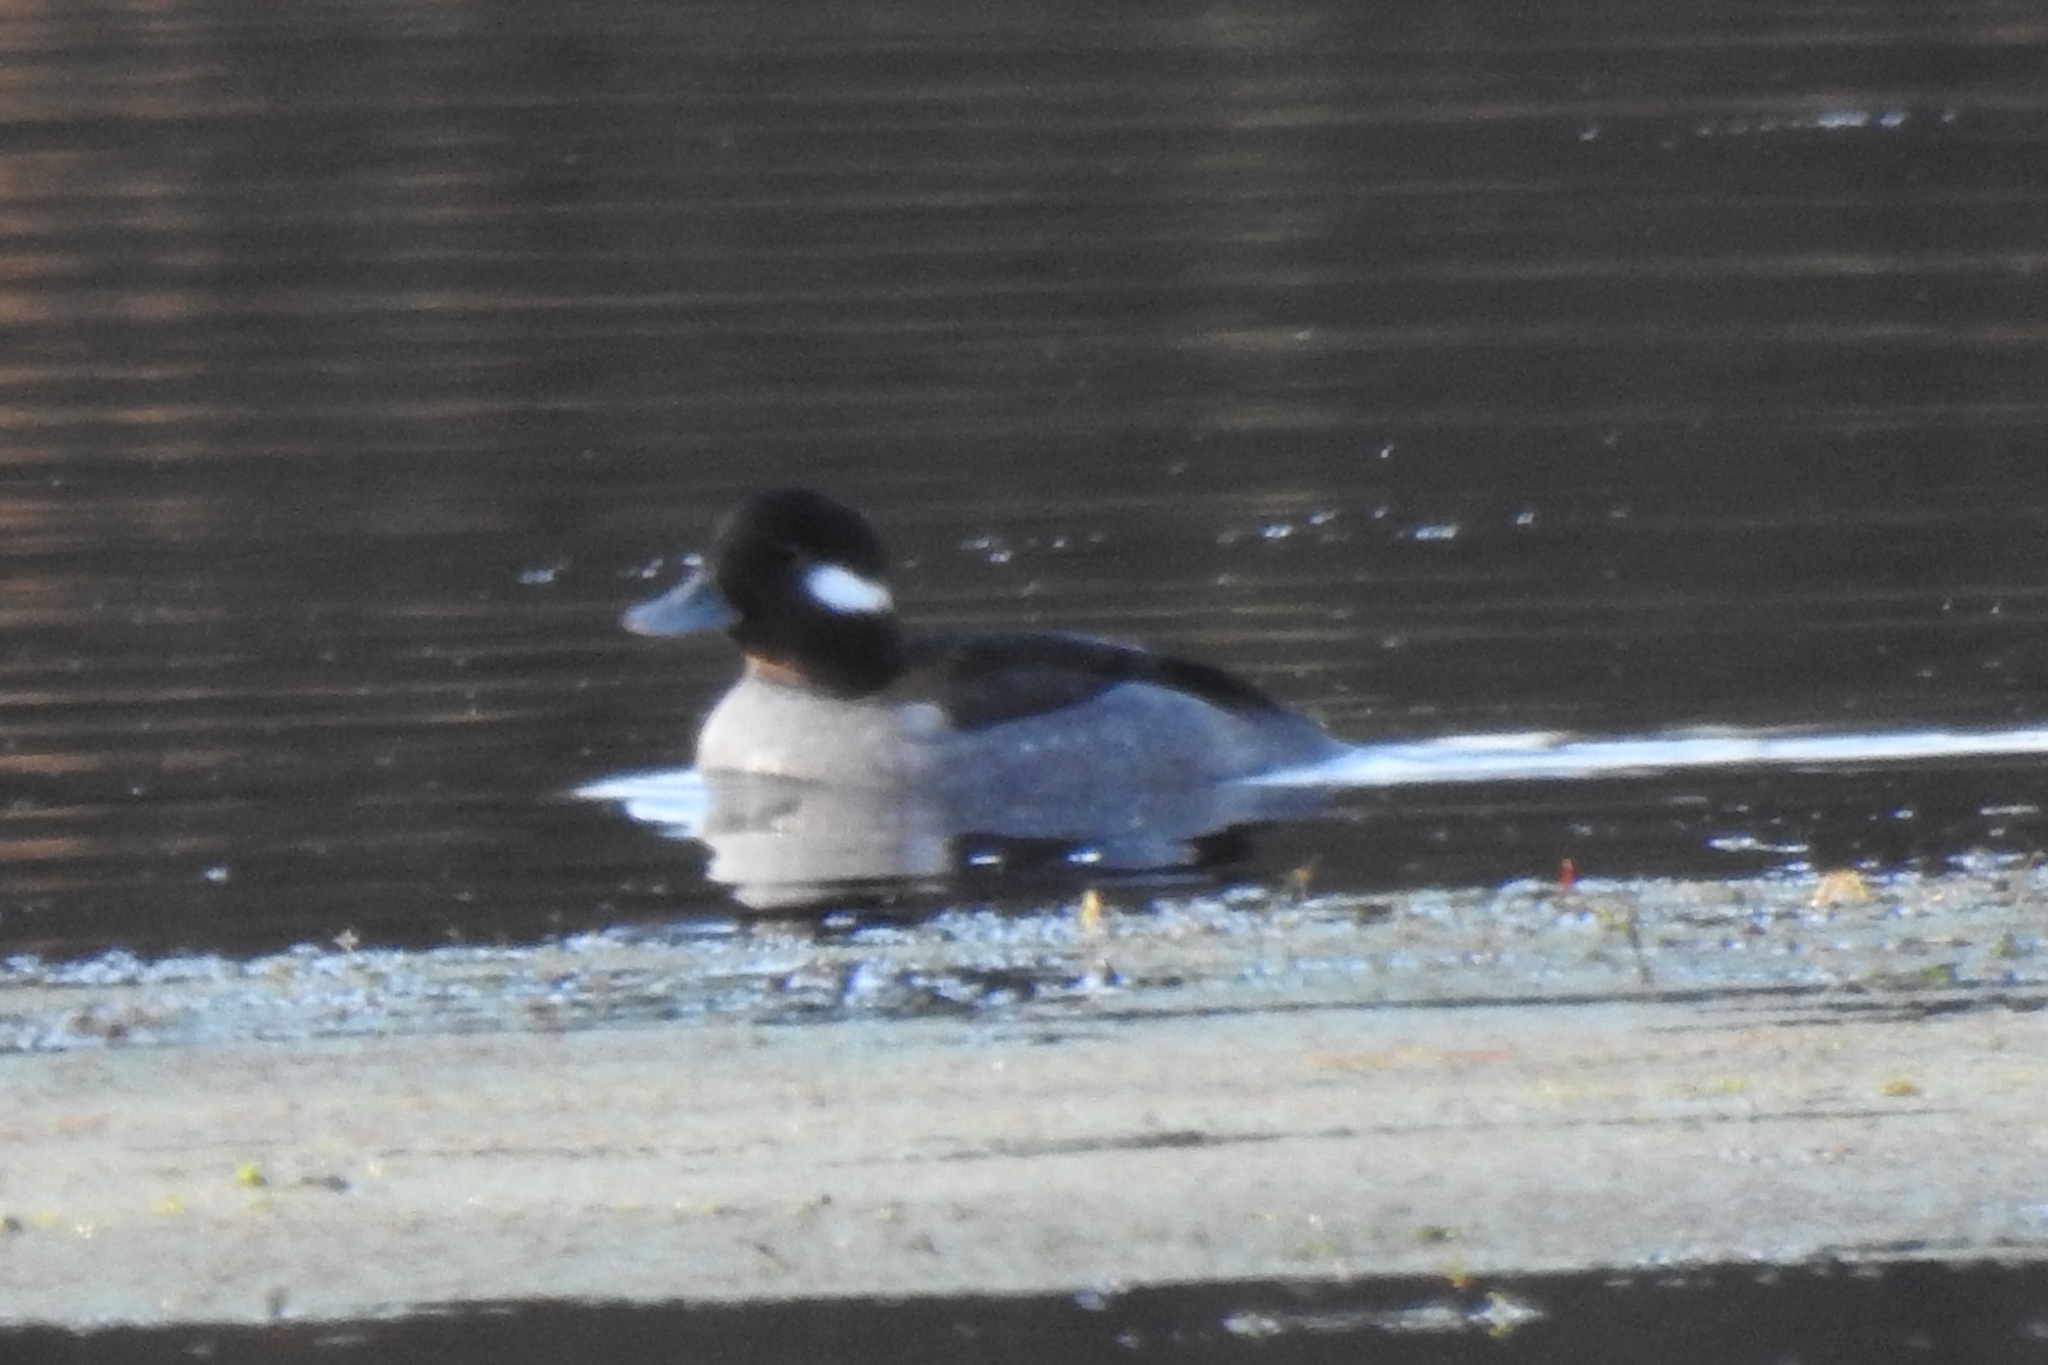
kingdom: Animalia
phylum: Chordata
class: Aves
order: Anseriformes
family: Anatidae
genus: Bucephala
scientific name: Bucephala albeola
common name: Bufflehead
